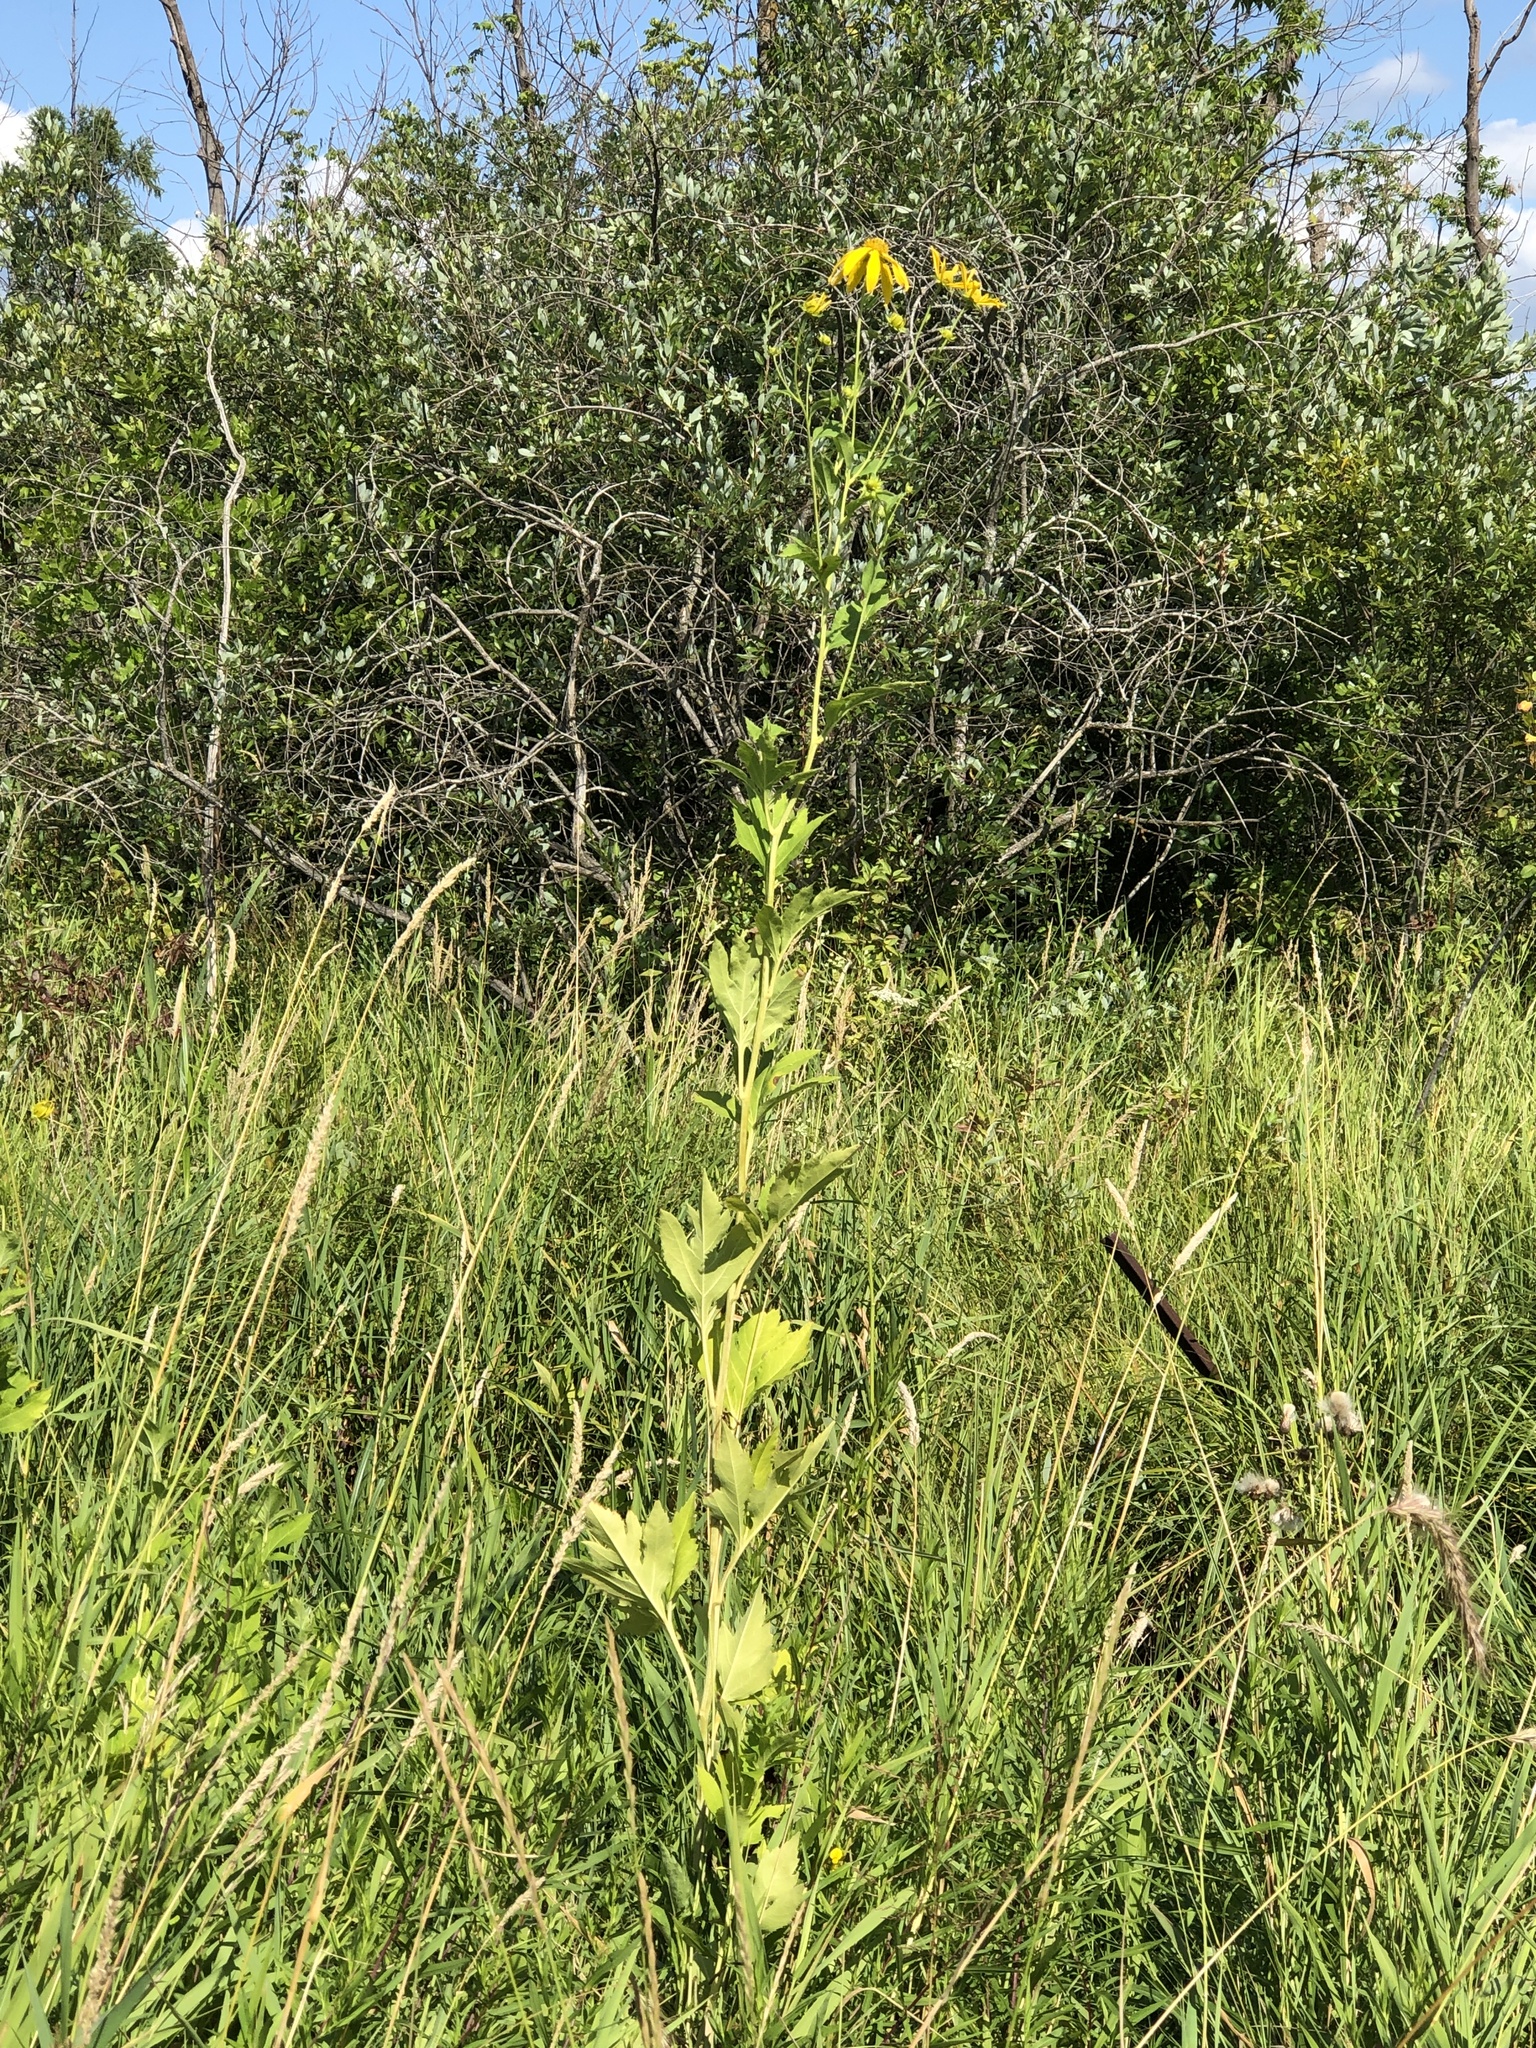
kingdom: Plantae
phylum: Tracheophyta
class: Magnoliopsida
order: Asterales
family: Asteraceae
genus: Rudbeckia
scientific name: Rudbeckia laciniata
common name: Coneflower
